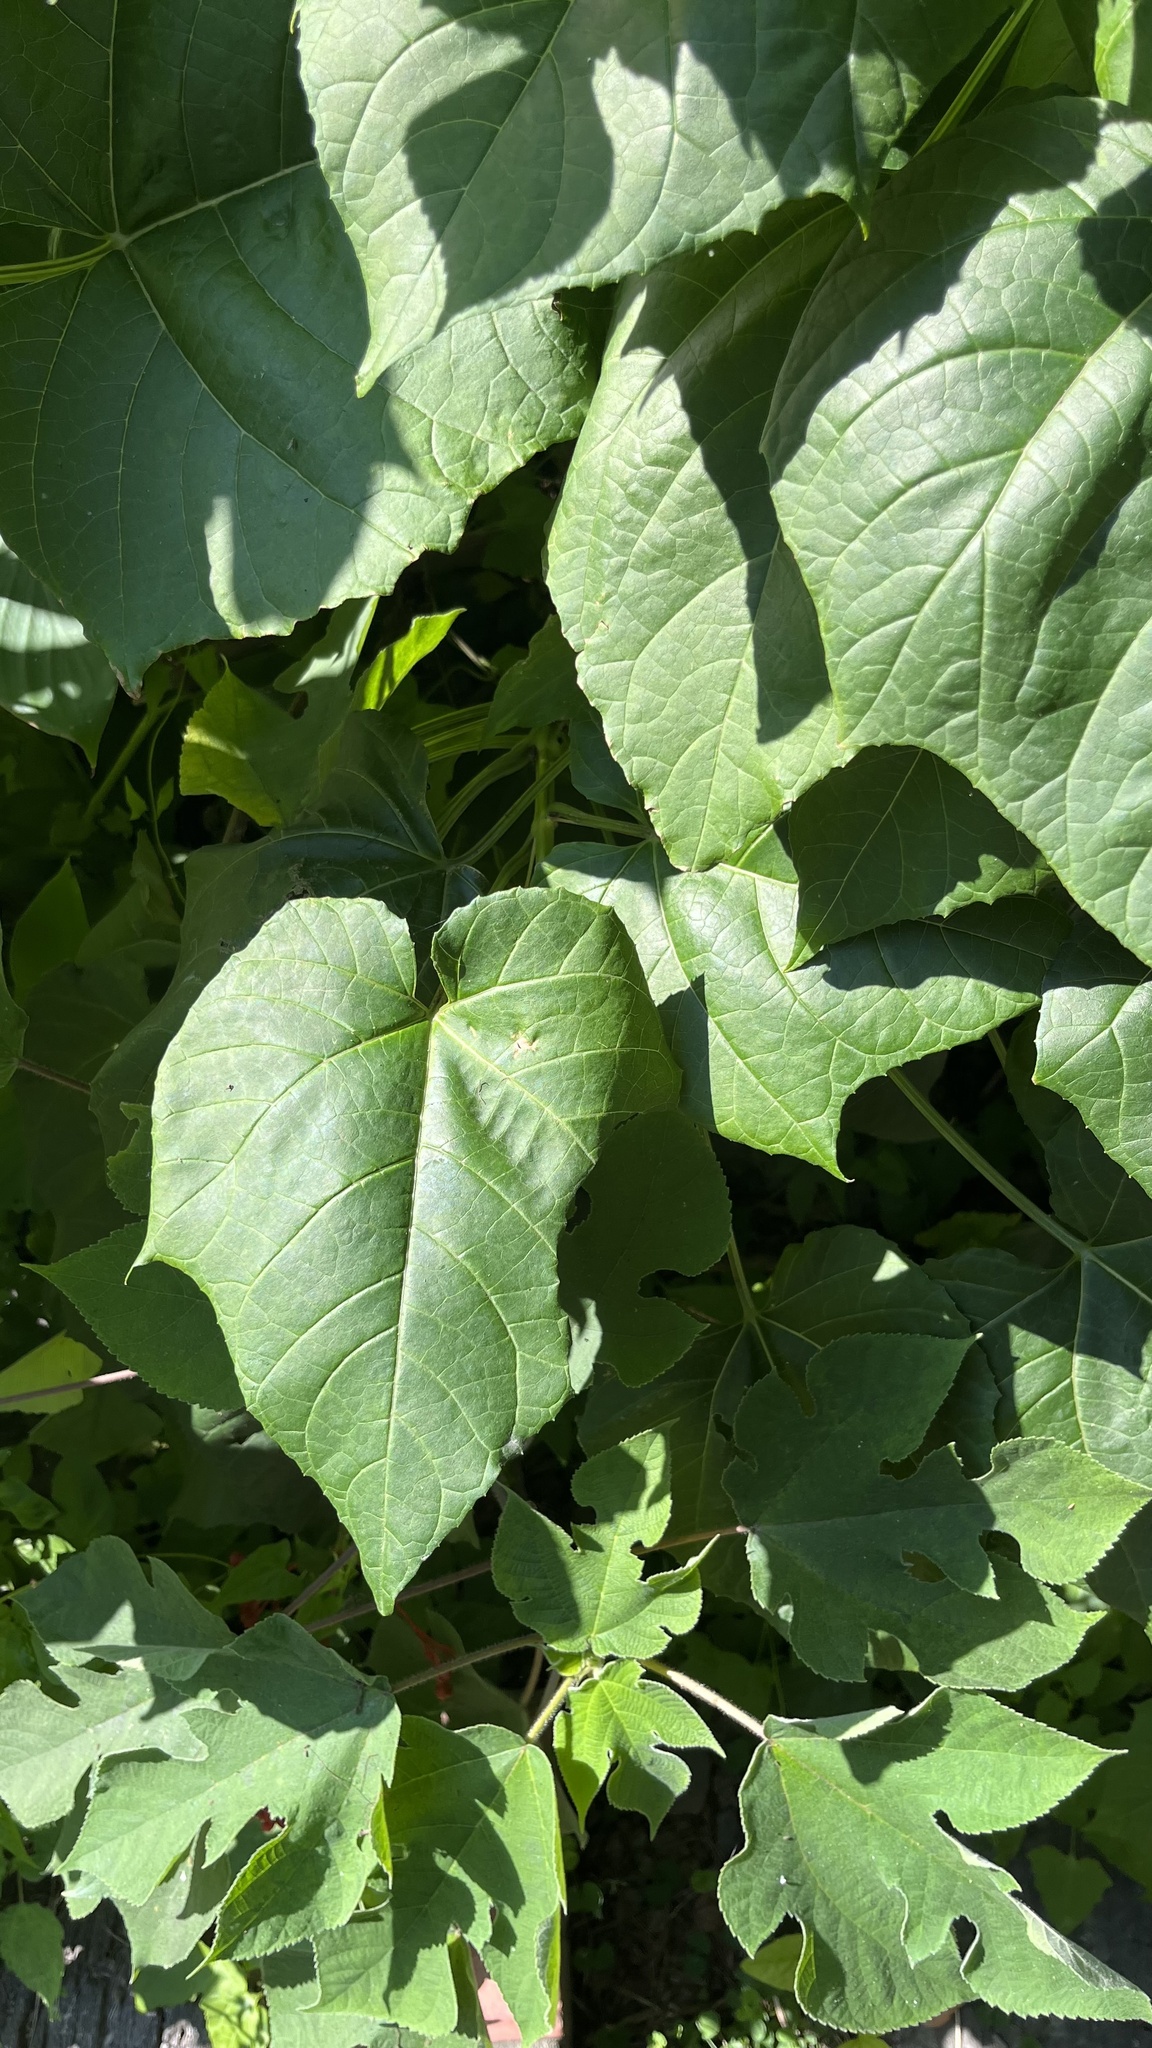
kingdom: Plantae
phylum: Tracheophyta
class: Magnoliopsida
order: Lamiales
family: Lamiaceae
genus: Clerodendrum
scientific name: Clerodendrum japonicum
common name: Japanese glorybower
